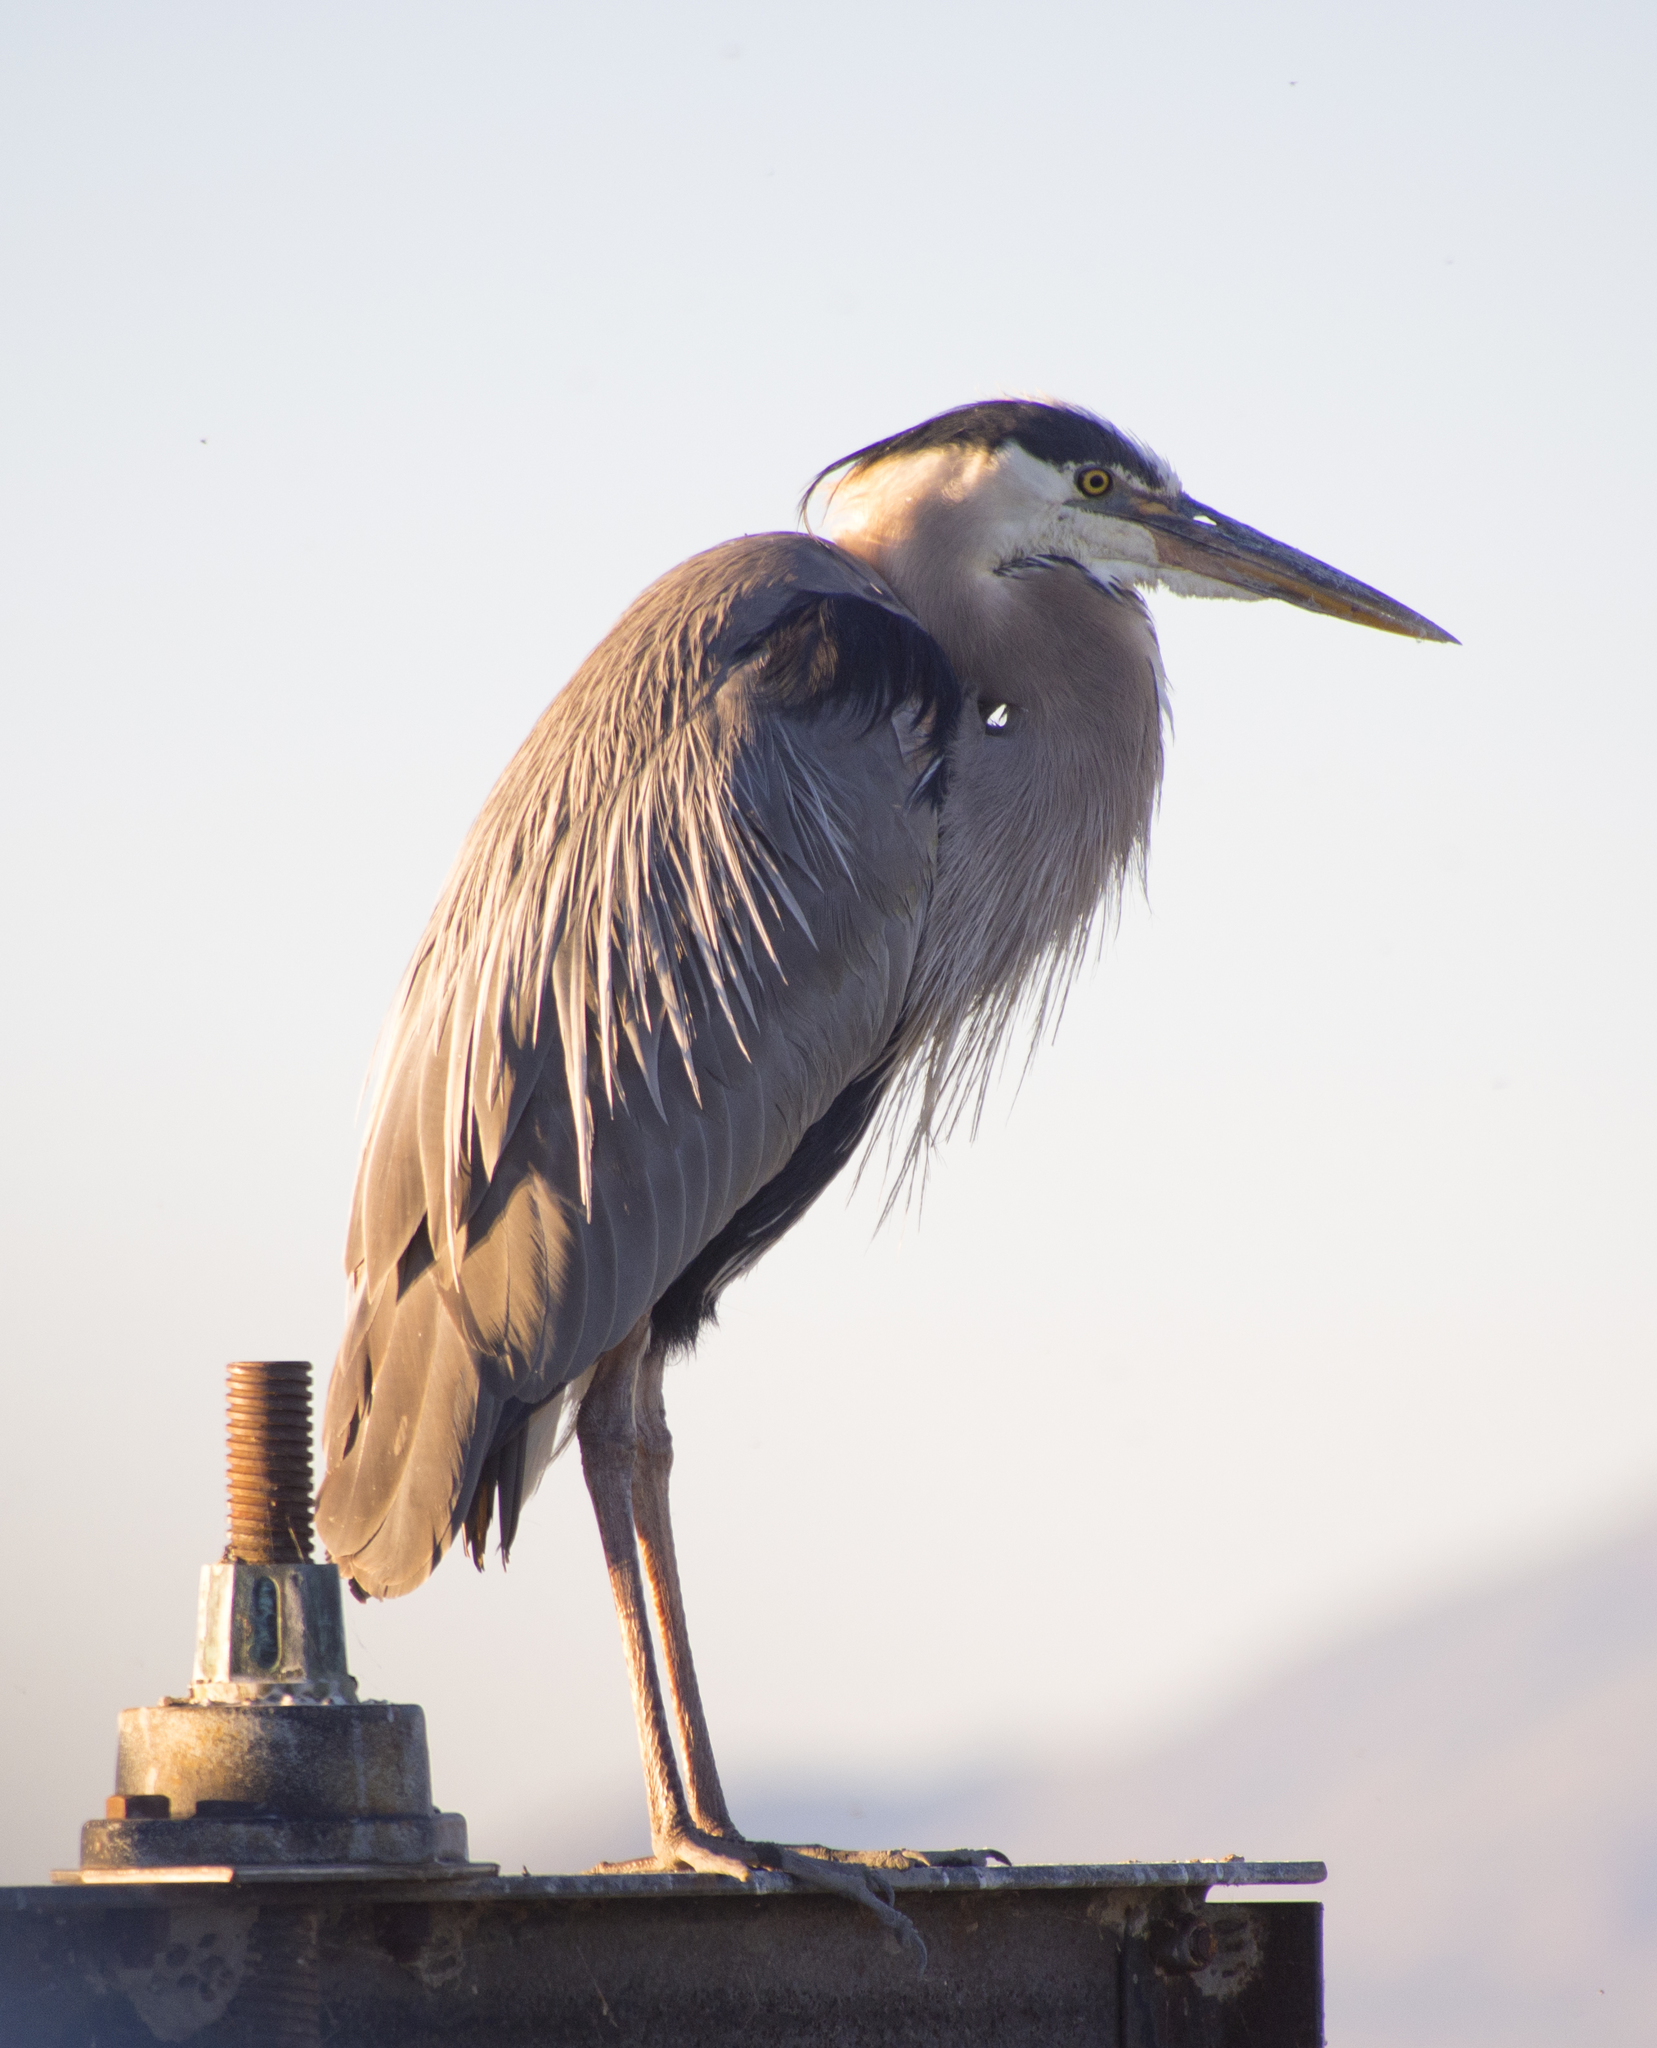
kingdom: Animalia
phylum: Chordata
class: Aves
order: Pelecaniformes
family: Ardeidae
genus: Ardea
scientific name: Ardea herodias
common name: Great blue heron
